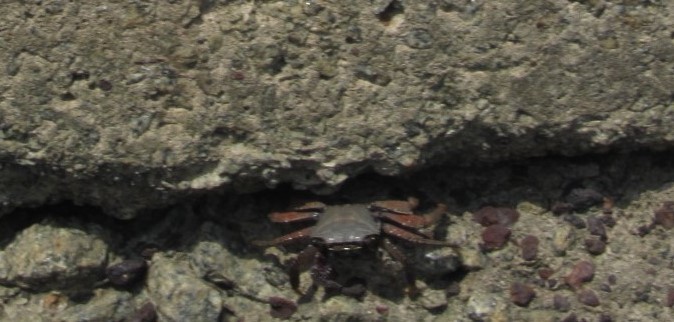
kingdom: Animalia
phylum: Arthropoda
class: Malacostraca
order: Decapoda
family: Grapsidae
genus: Grapsus
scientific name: Grapsus adscensionis
